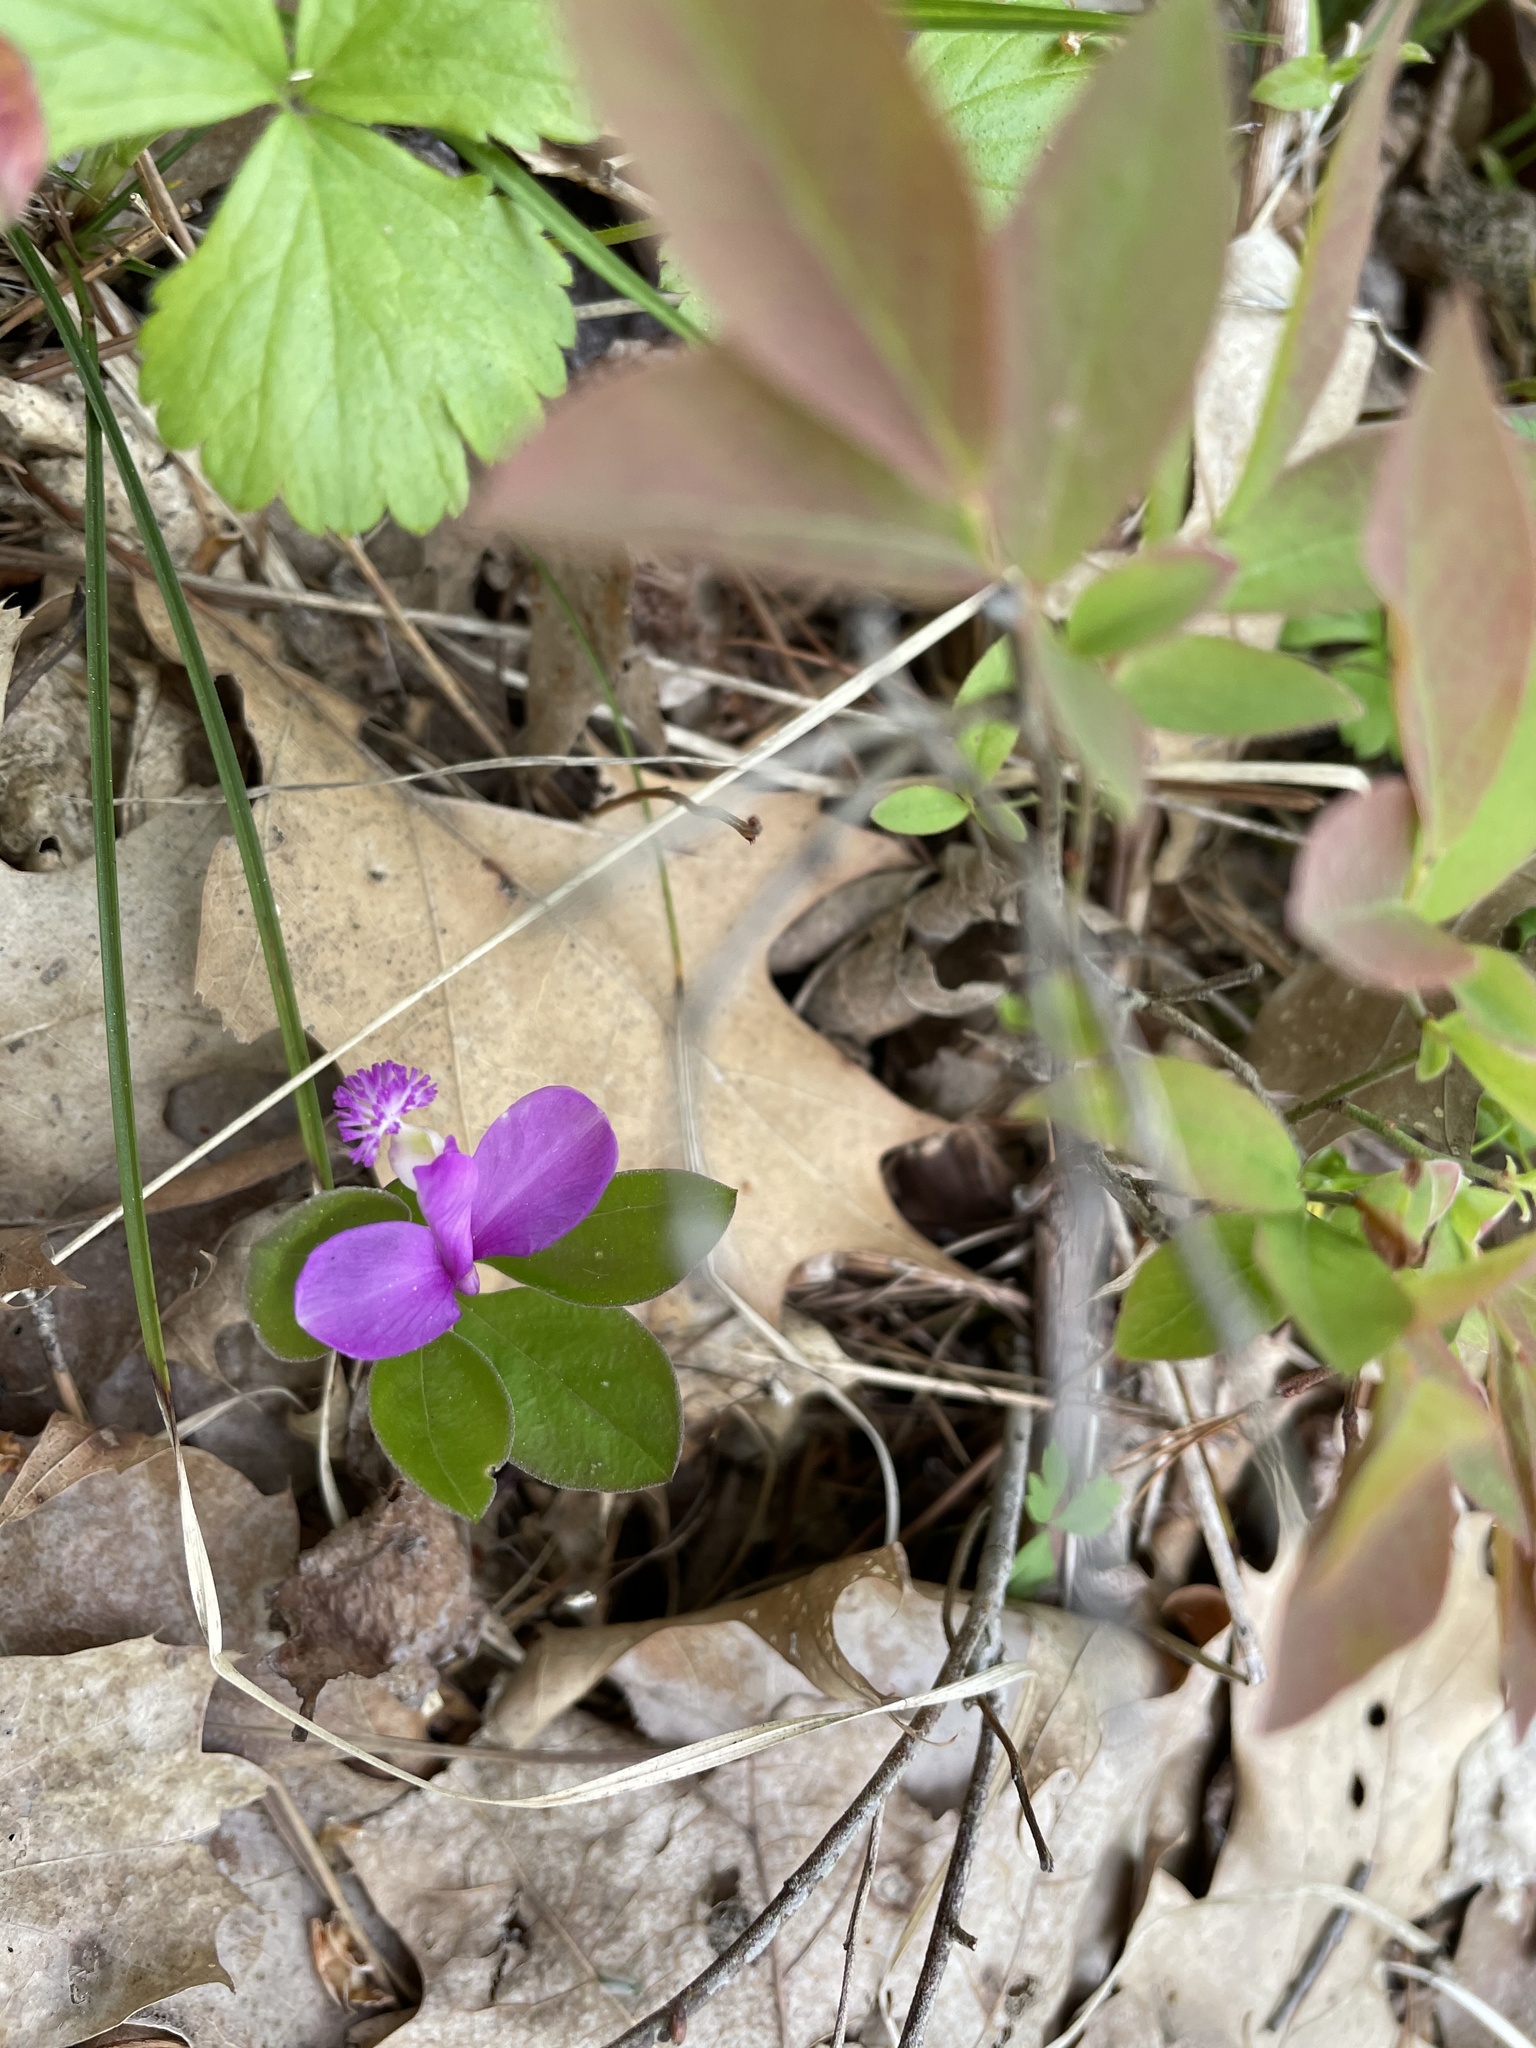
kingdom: Plantae
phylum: Tracheophyta
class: Magnoliopsida
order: Fabales
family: Polygalaceae
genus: Polygaloides
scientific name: Polygaloides paucifolia
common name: Bird-on-the-wing
